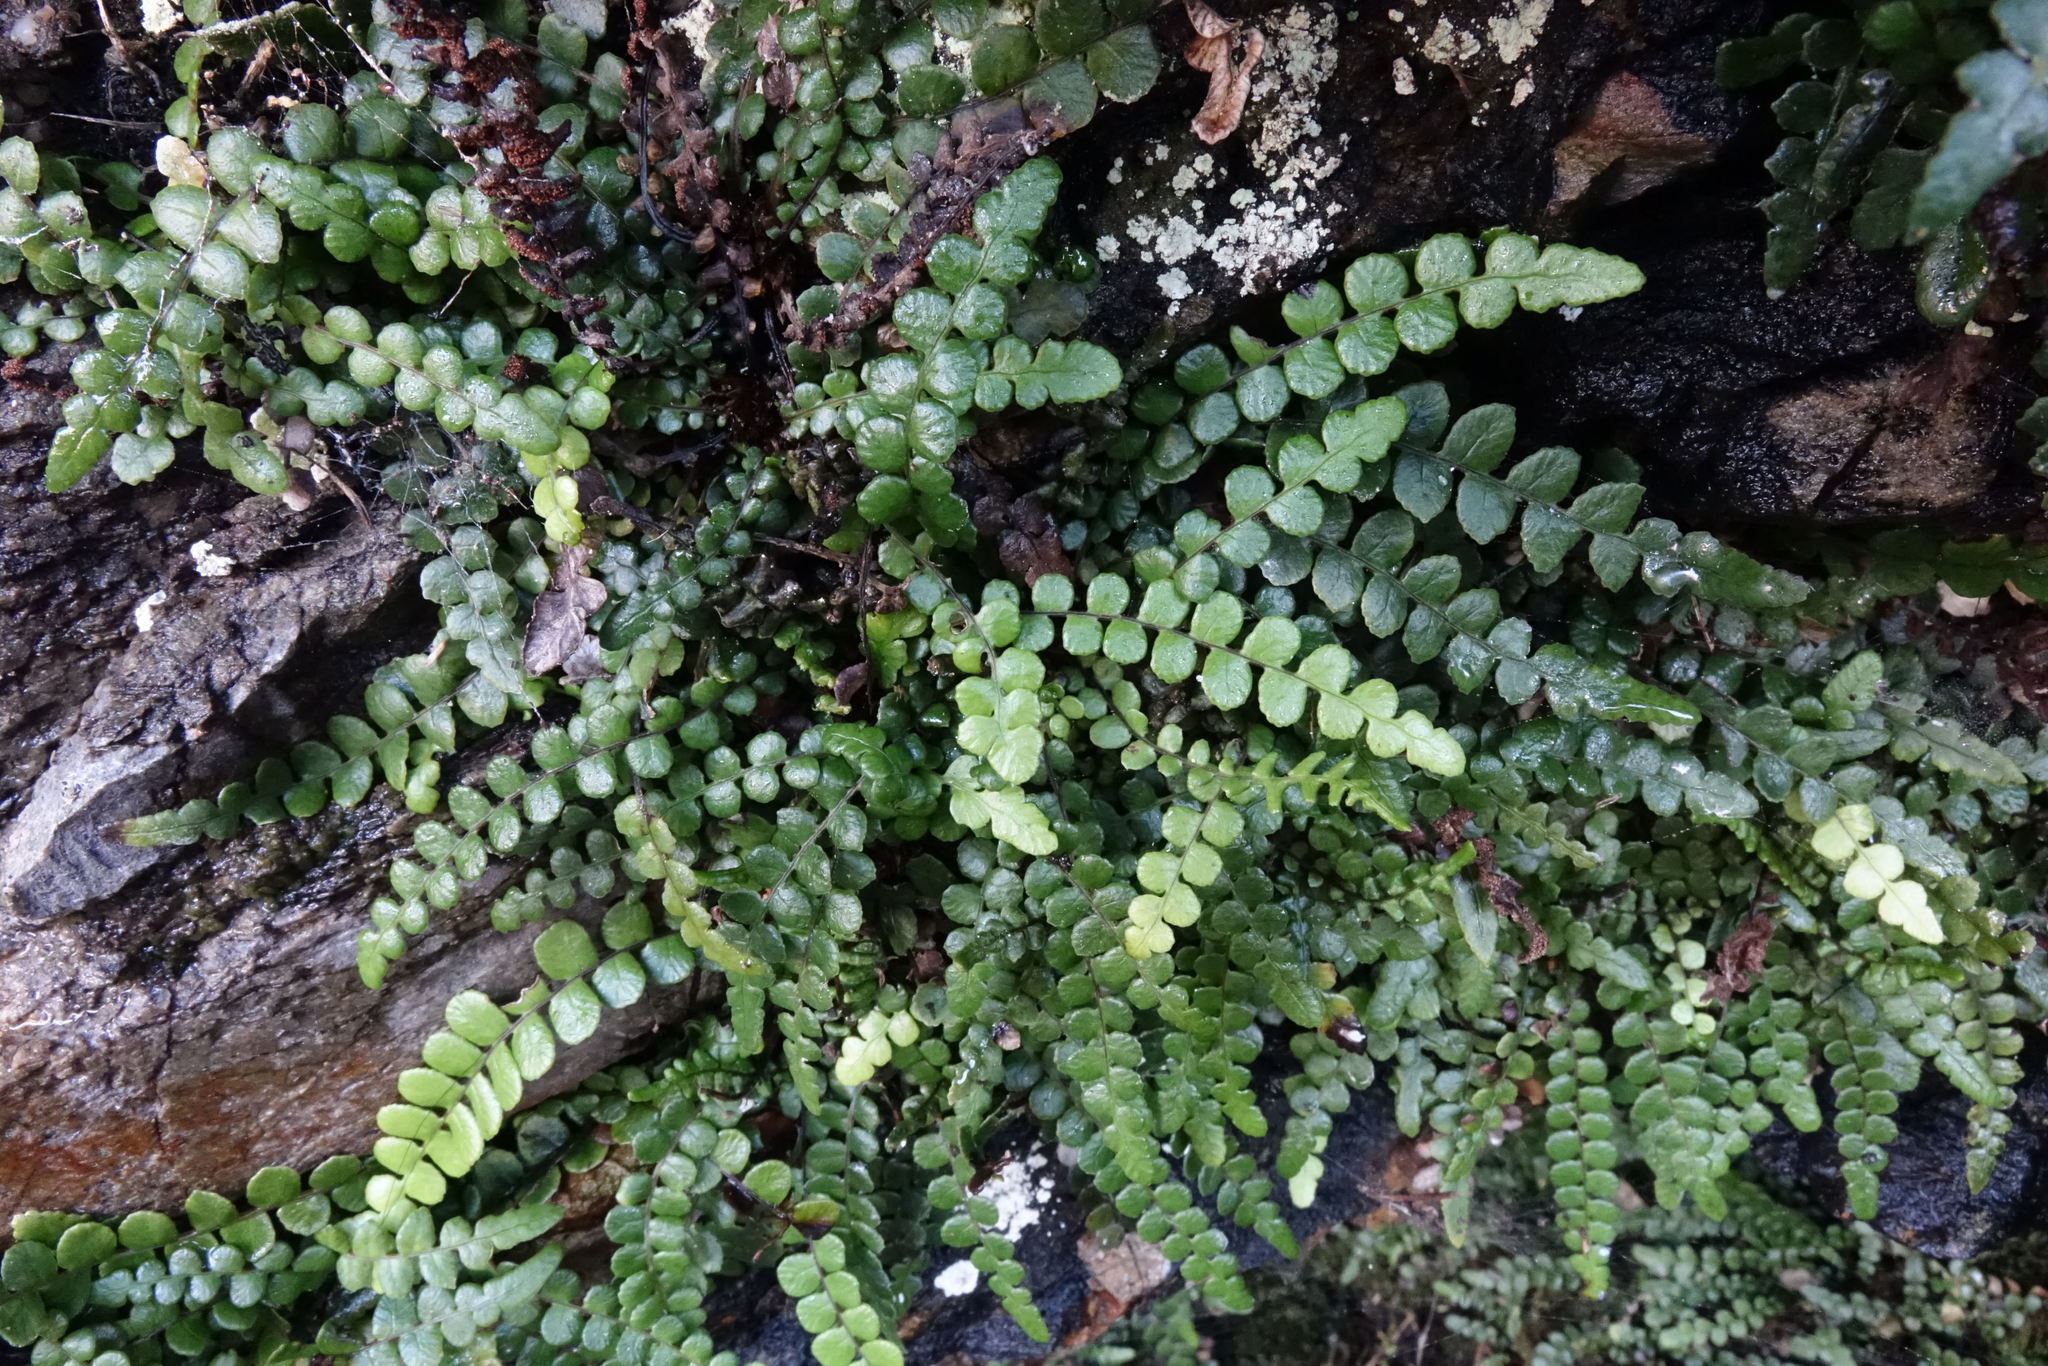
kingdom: Plantae
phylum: Tracheophyta
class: Polypodiopsida
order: Polypodiales
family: Blechnaceae
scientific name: Blechnaceae
